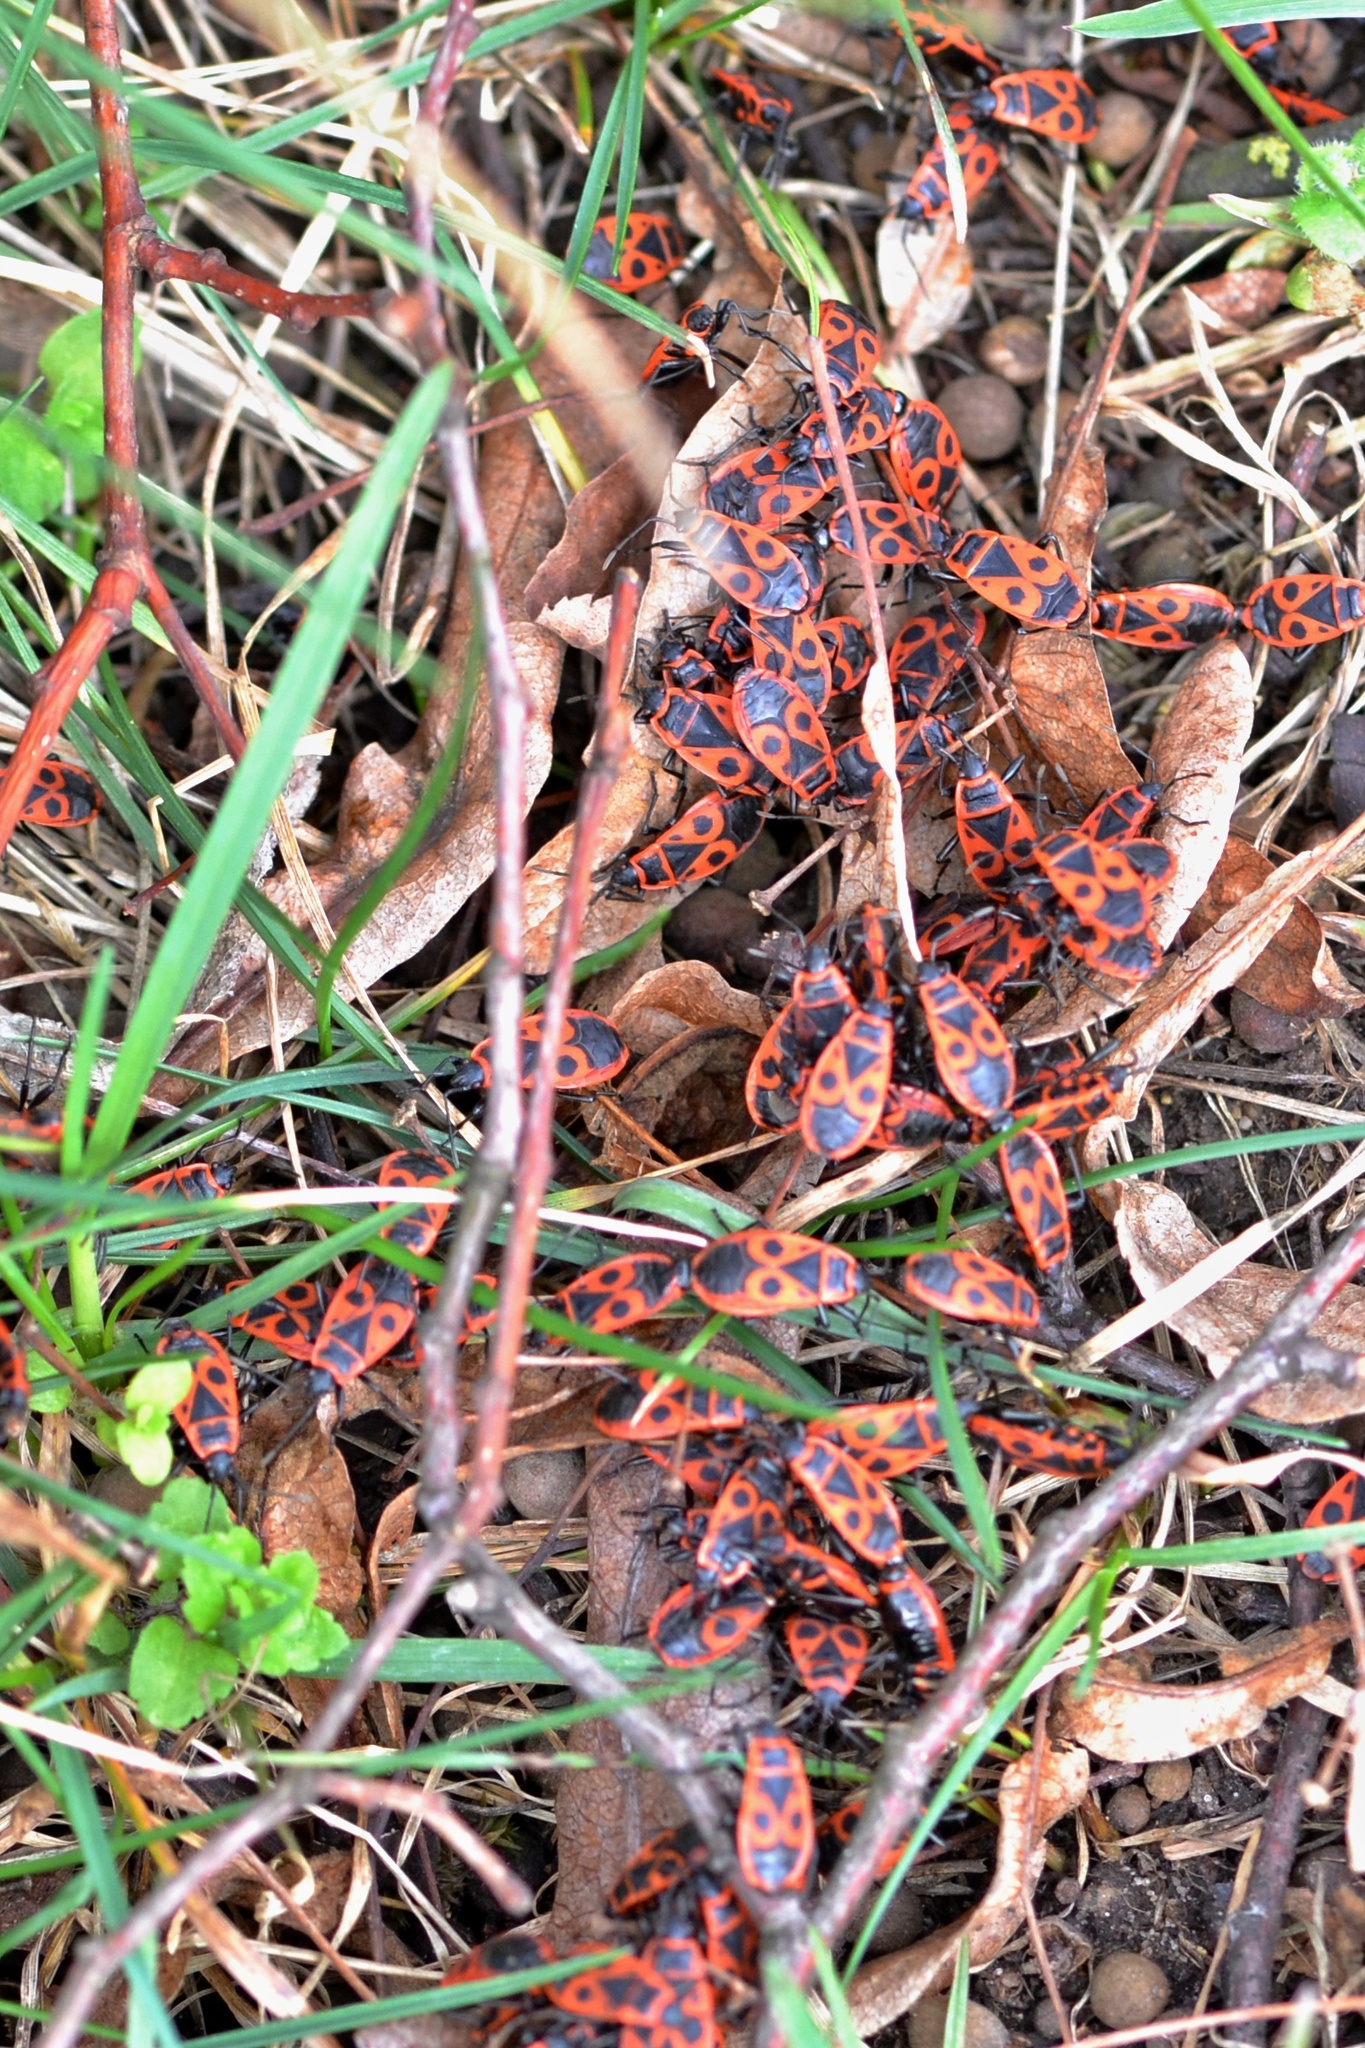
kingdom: Animalia
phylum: Arthropoda
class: Insecta
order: Hemiptera
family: Pyrrhocoridae
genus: Pyrrhocoris
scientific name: Pyrrhocoris apterus
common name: Firebug
